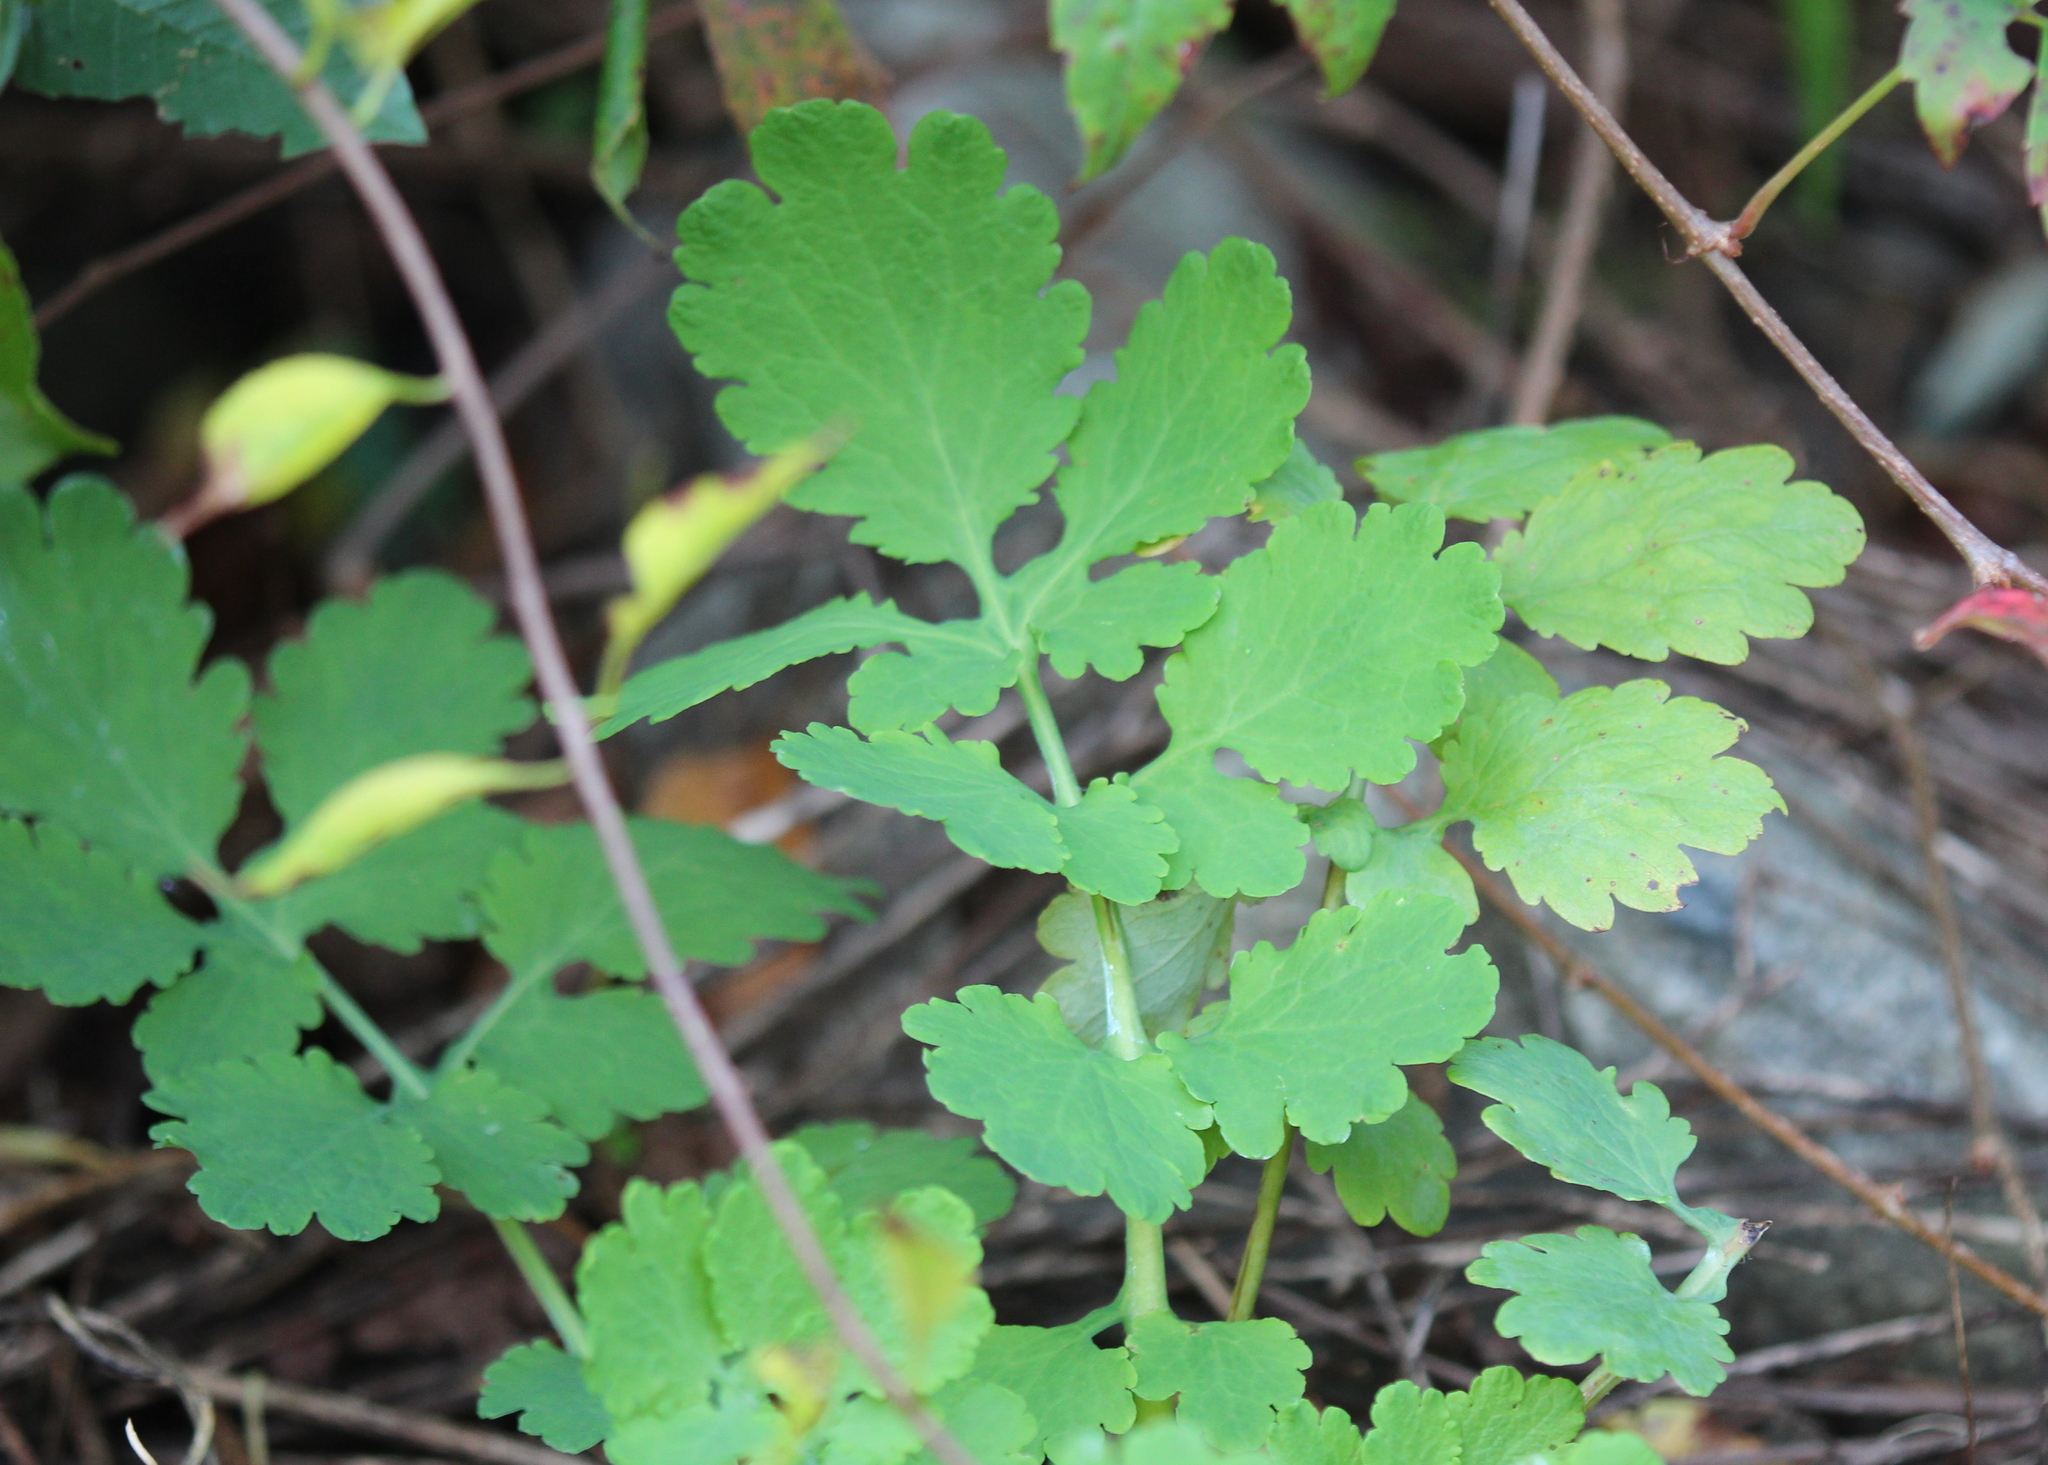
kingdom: Plantae
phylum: Tracheophyta
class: Magnoliopsida
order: Ranunculales
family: Papaveraceae
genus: Chelidonium
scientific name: Chelidonium majus
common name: Greater celandine
